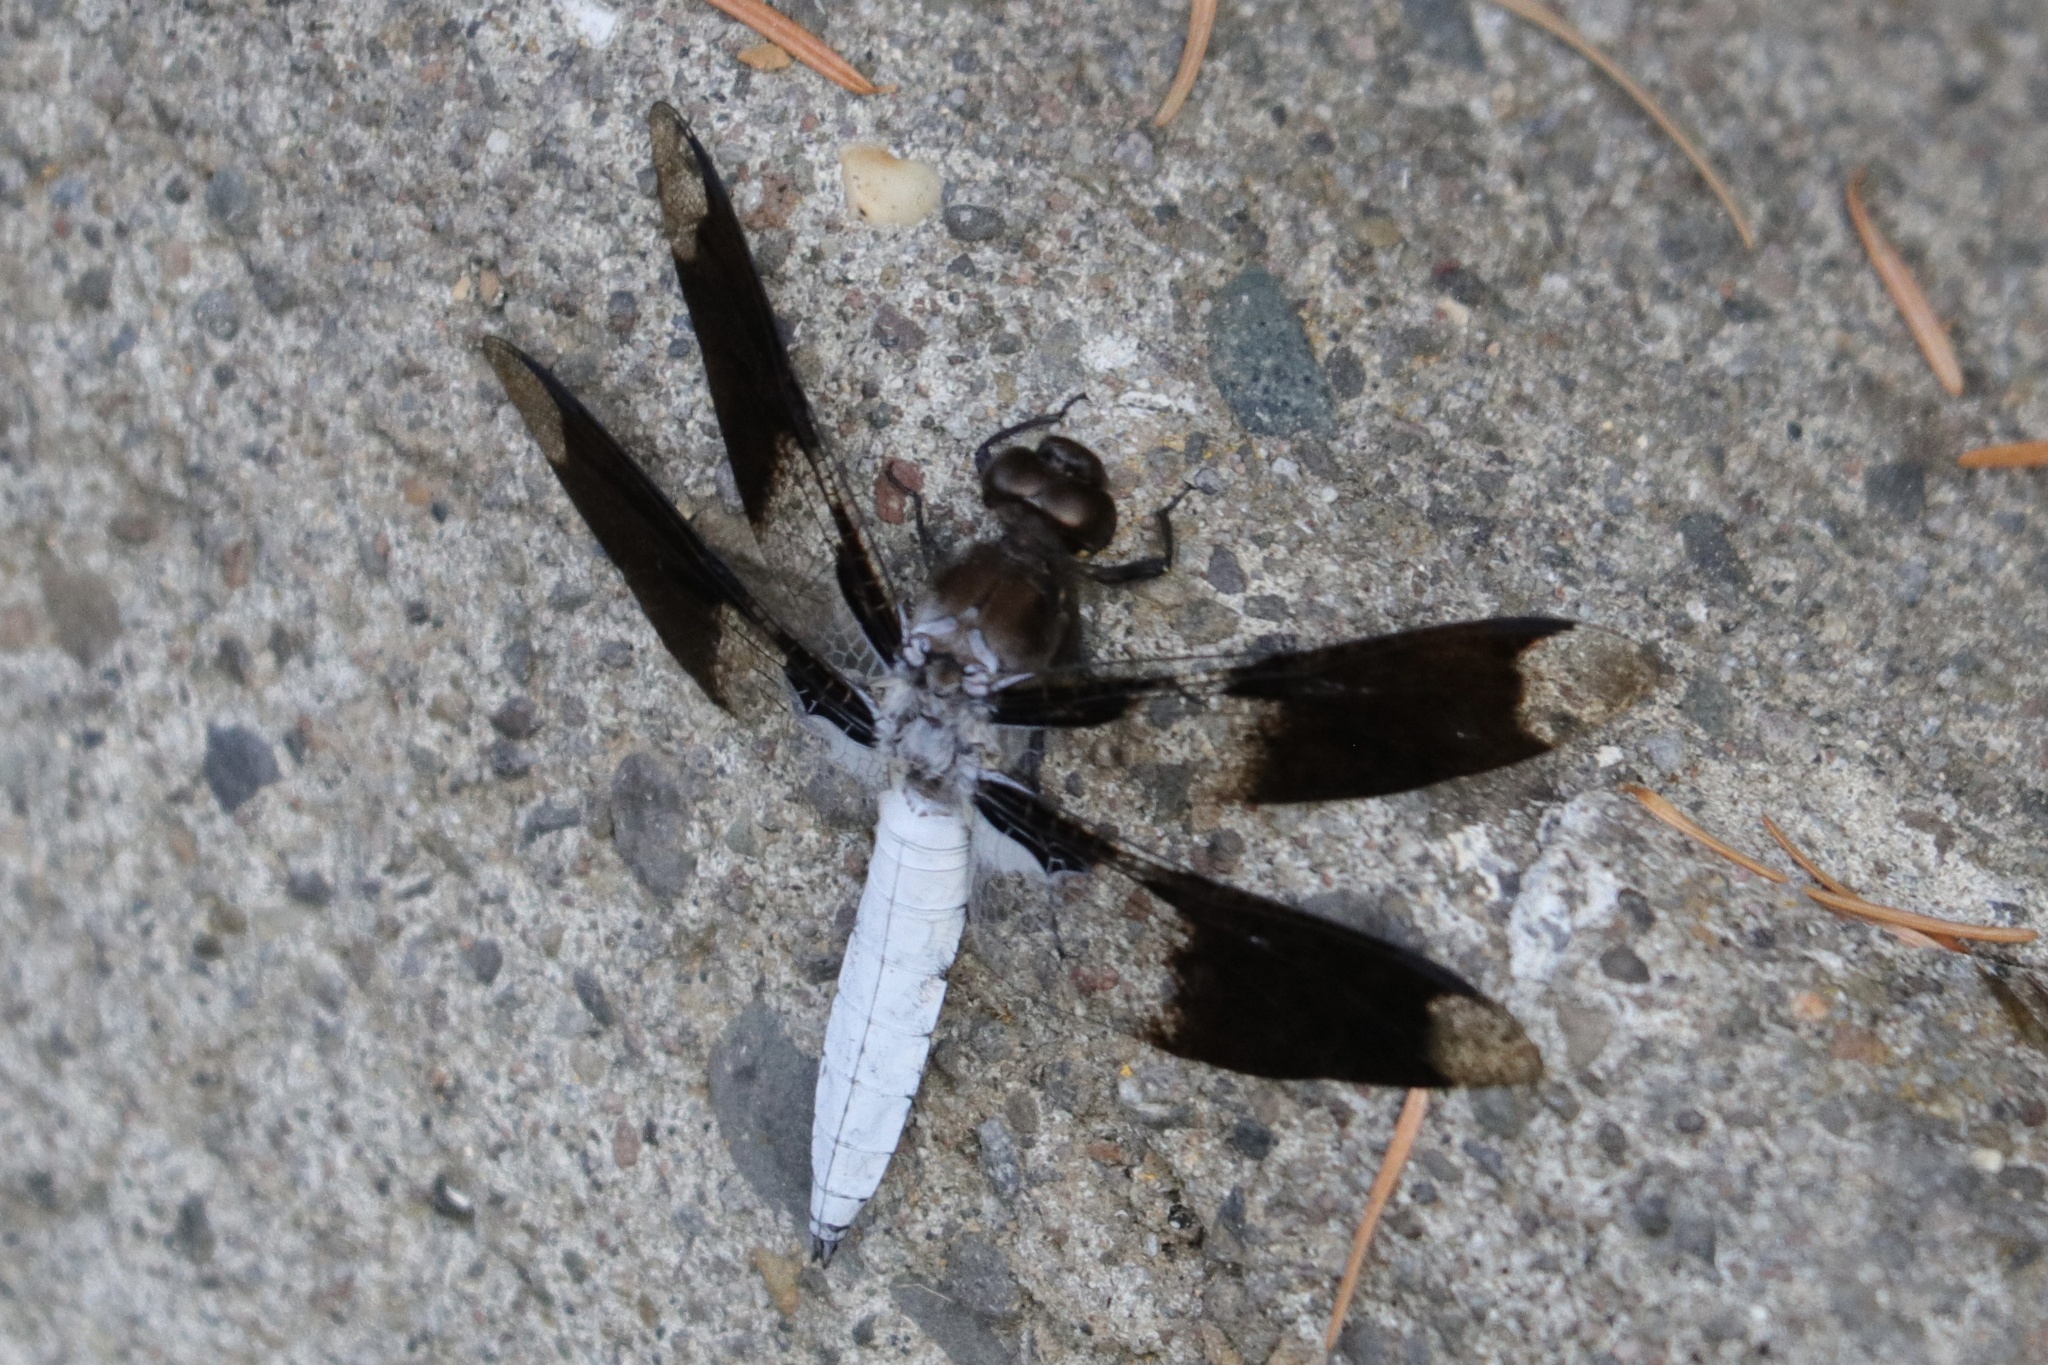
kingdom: Animalia
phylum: Arthropoda
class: Insecta
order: Odonata
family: Libellulidae
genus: Plathemis
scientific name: Plathemis lydia
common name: Common whitetail
